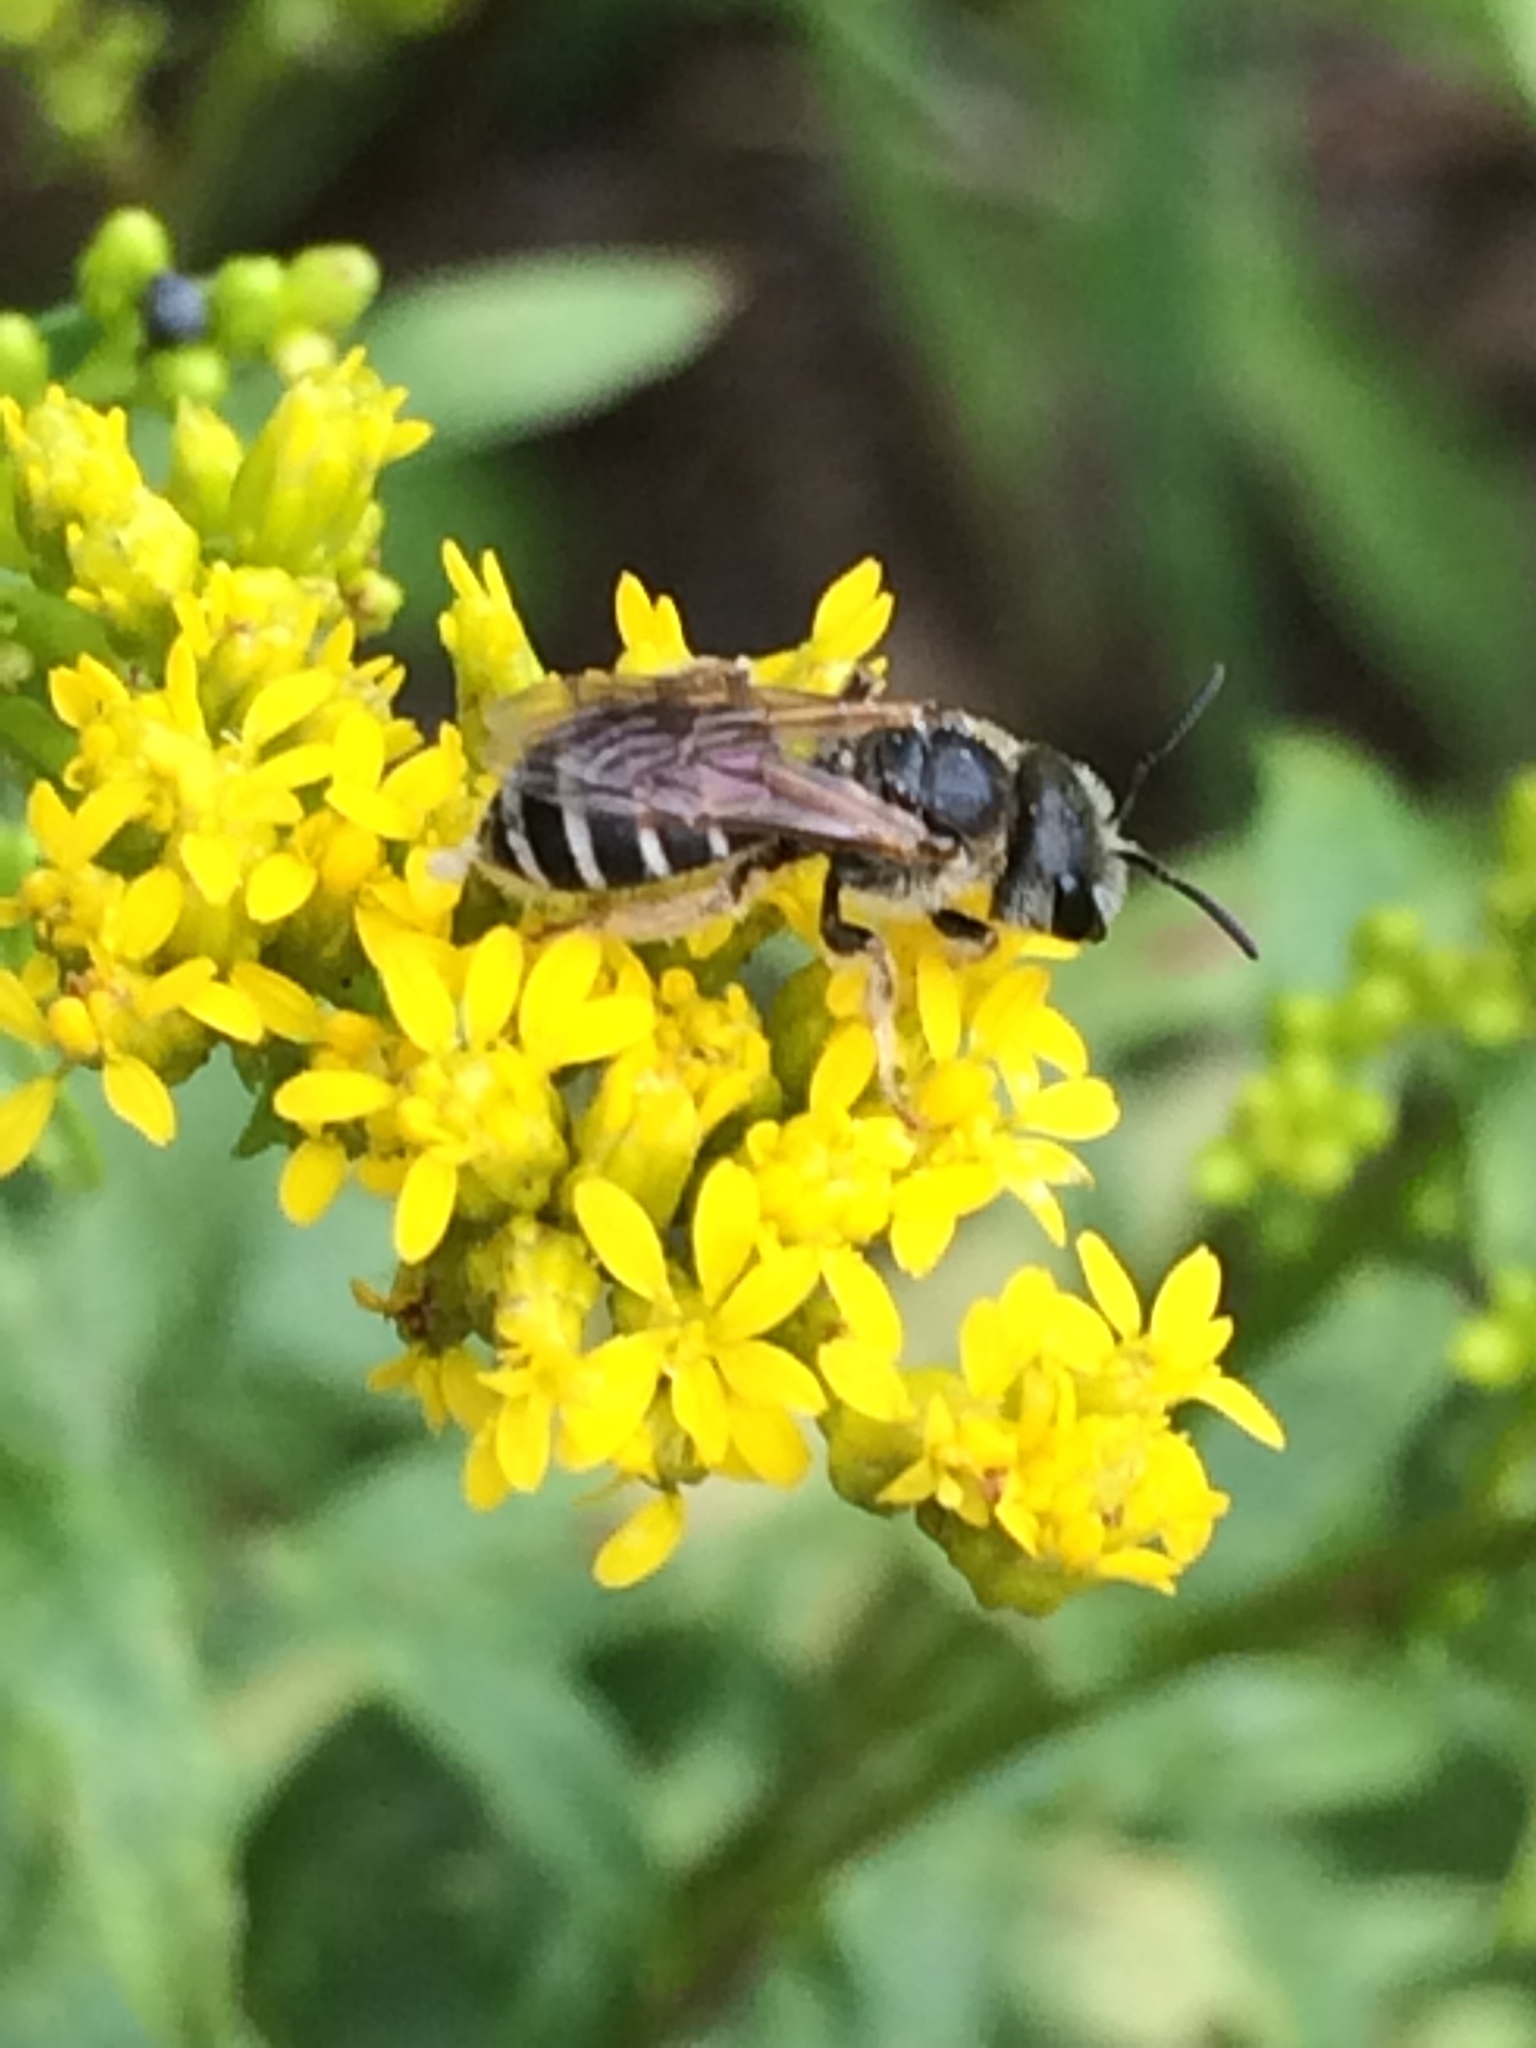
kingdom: Animalia
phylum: Arthropoda
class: Insecta
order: Hymenoptera
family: Halictidae
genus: Halictus
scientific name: Halictus ligatus
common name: Ligated furrow bee
